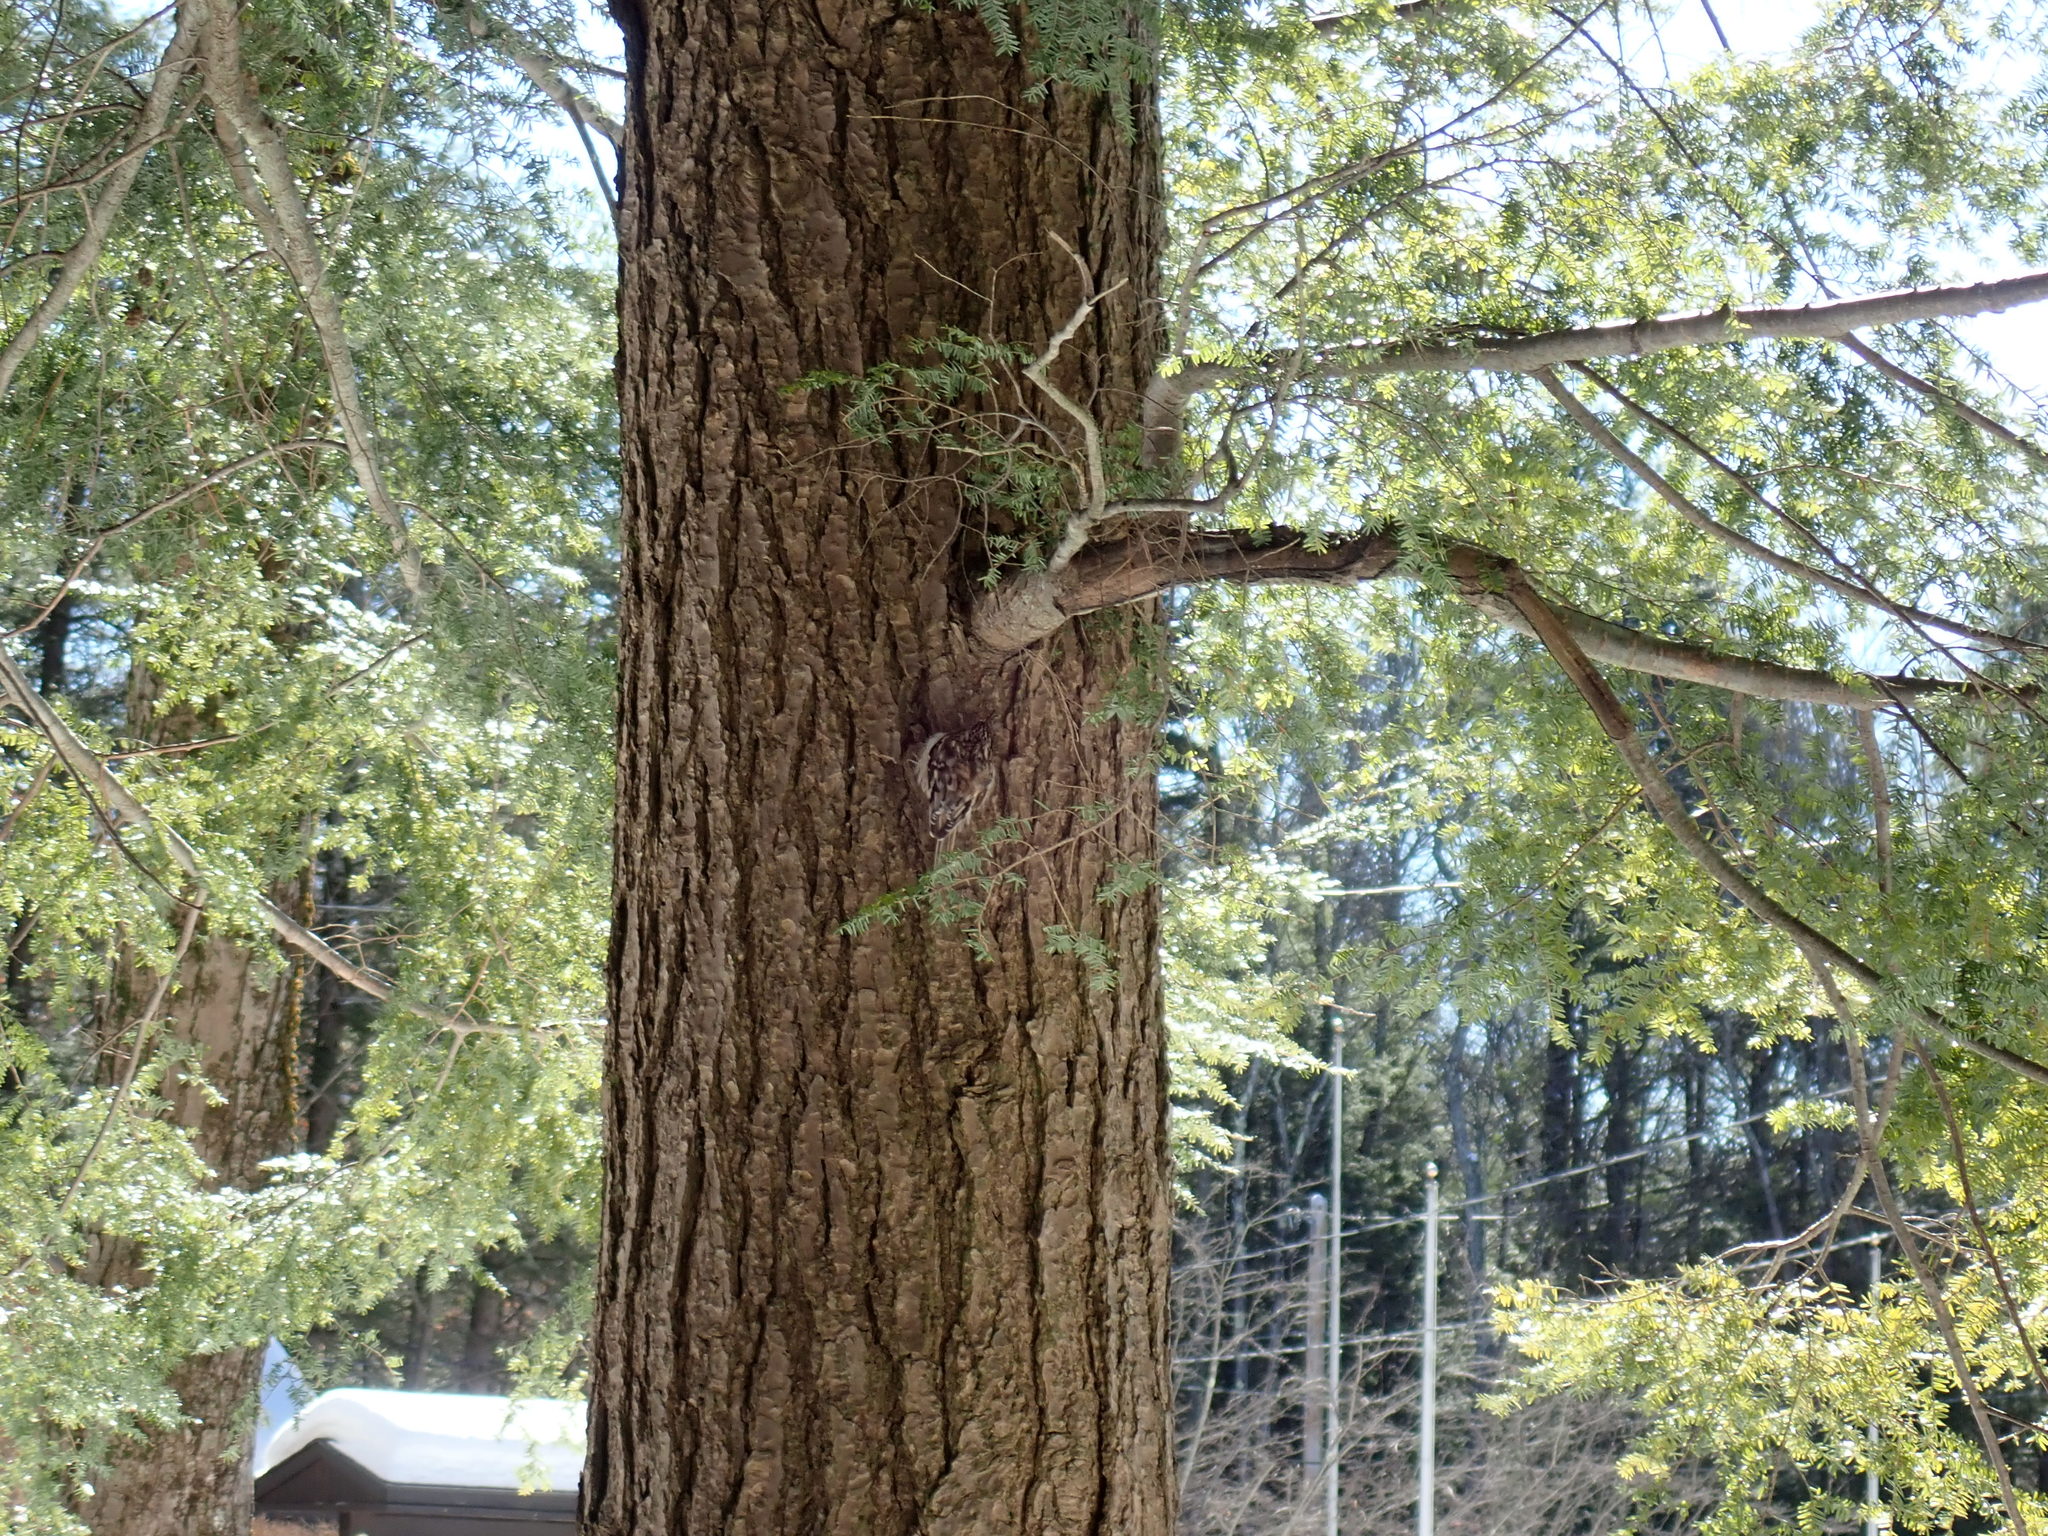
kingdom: Animalia
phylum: Chordata
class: Aves
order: Passeriformes
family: Certhiidae
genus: Certhia
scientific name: Certhia americana
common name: Brown creeper
